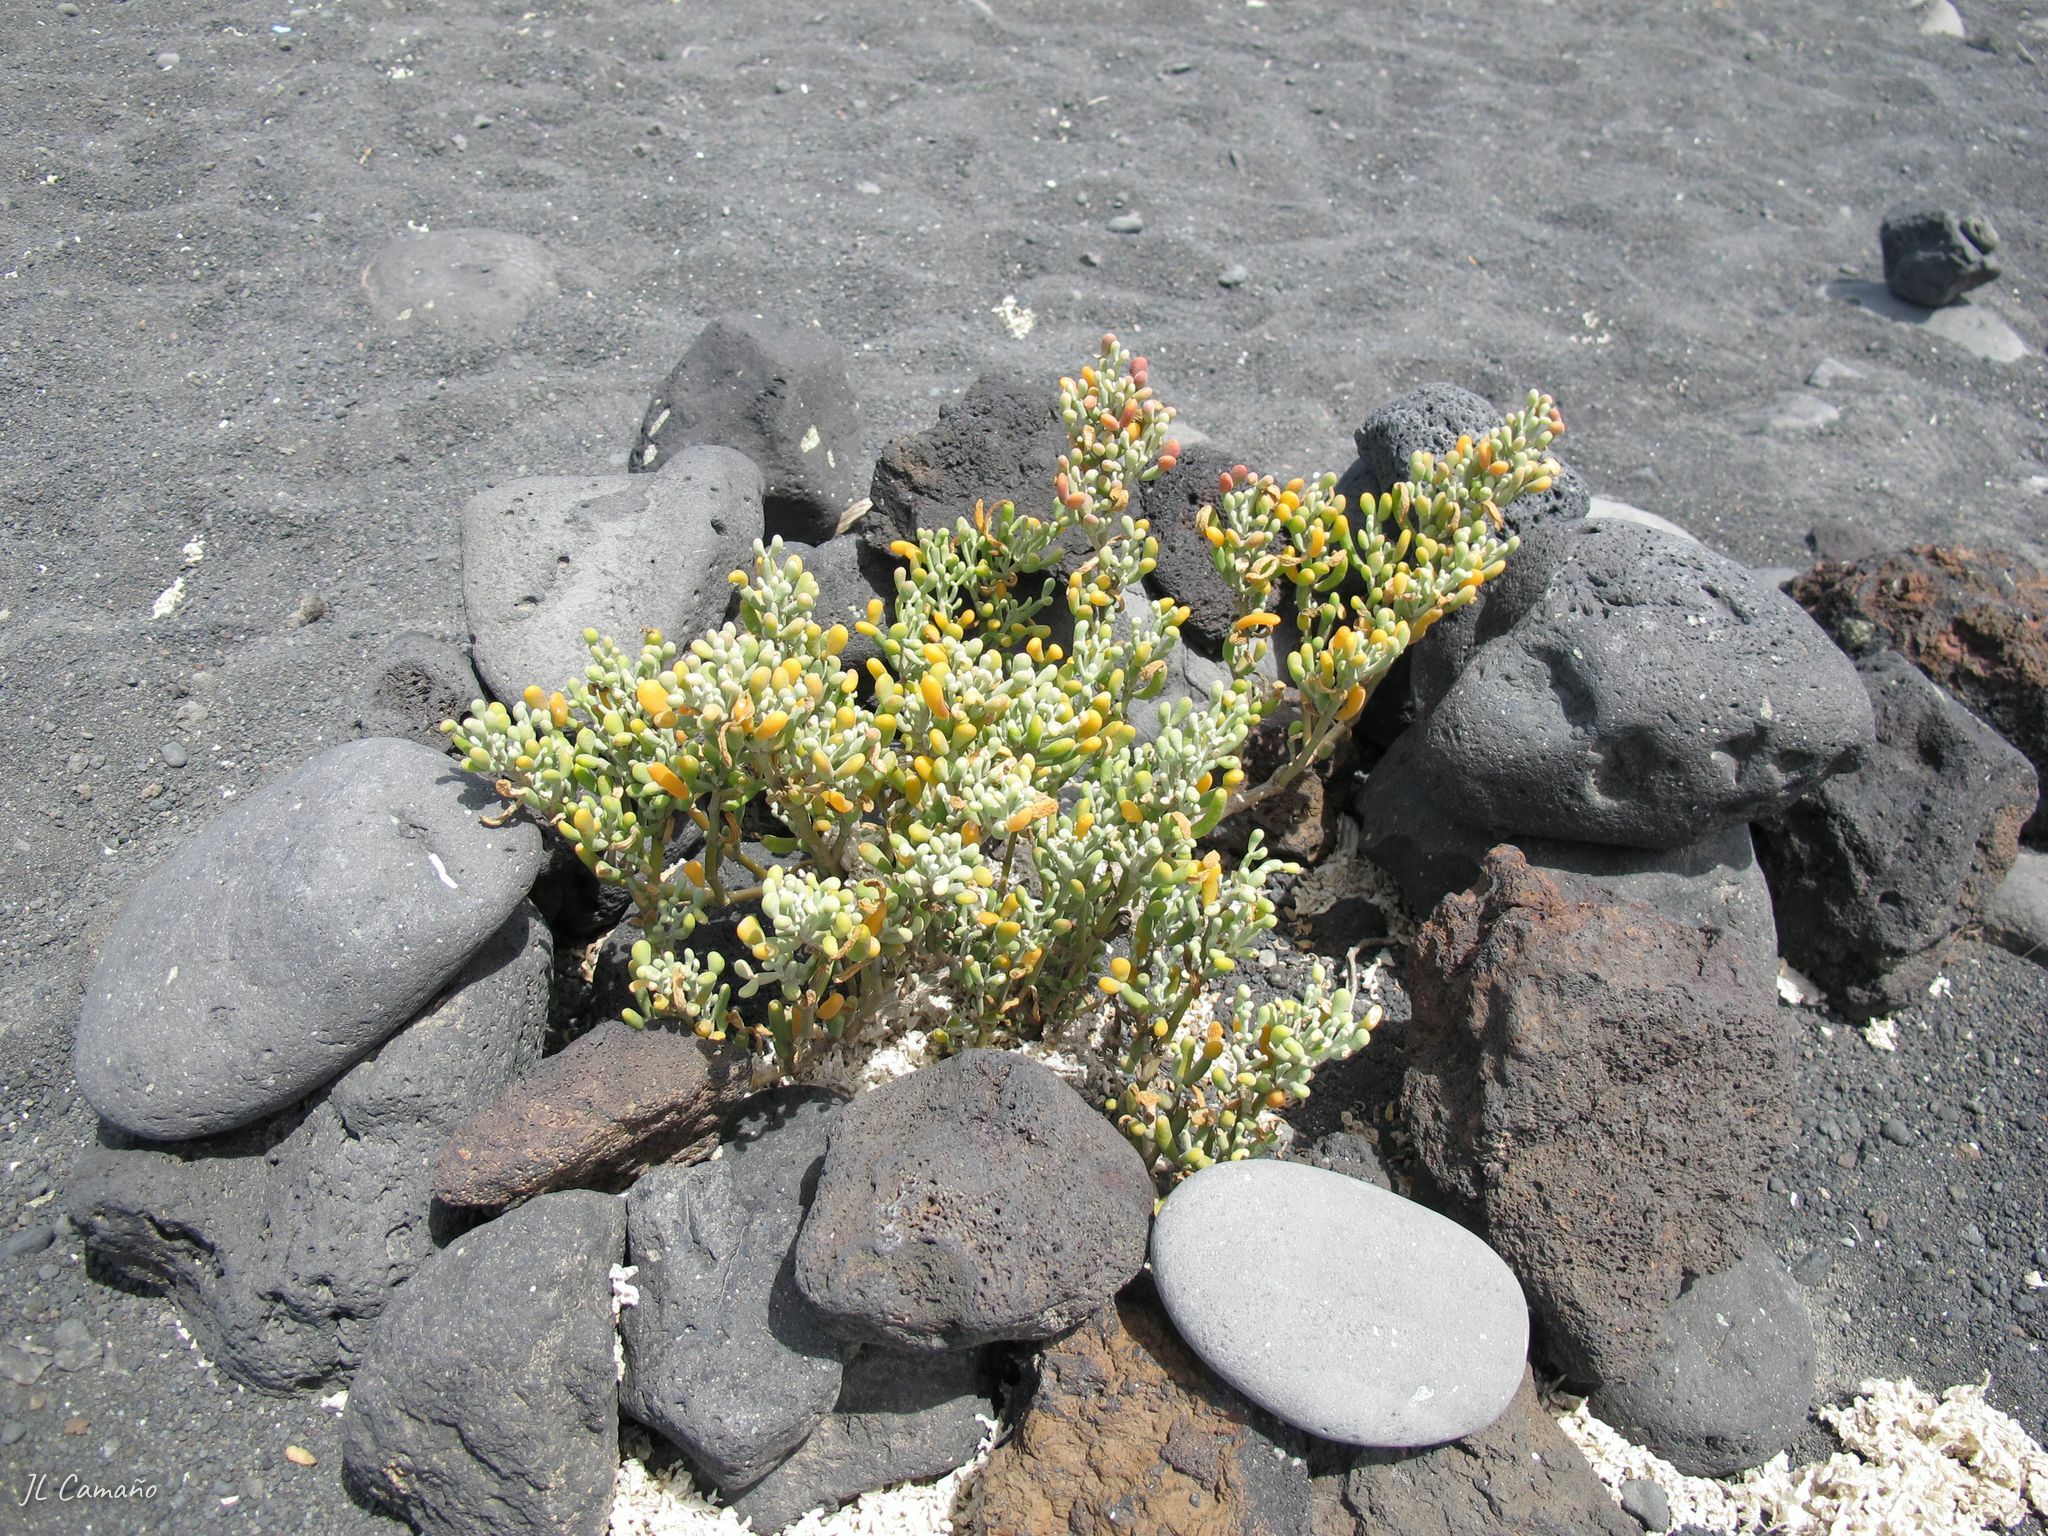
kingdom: Plantae
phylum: Tracheophyta
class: Magnoliopsida
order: Zygophyllales
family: Zygophyllaceae
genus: Tetraena
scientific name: Tetraena fontanesii
